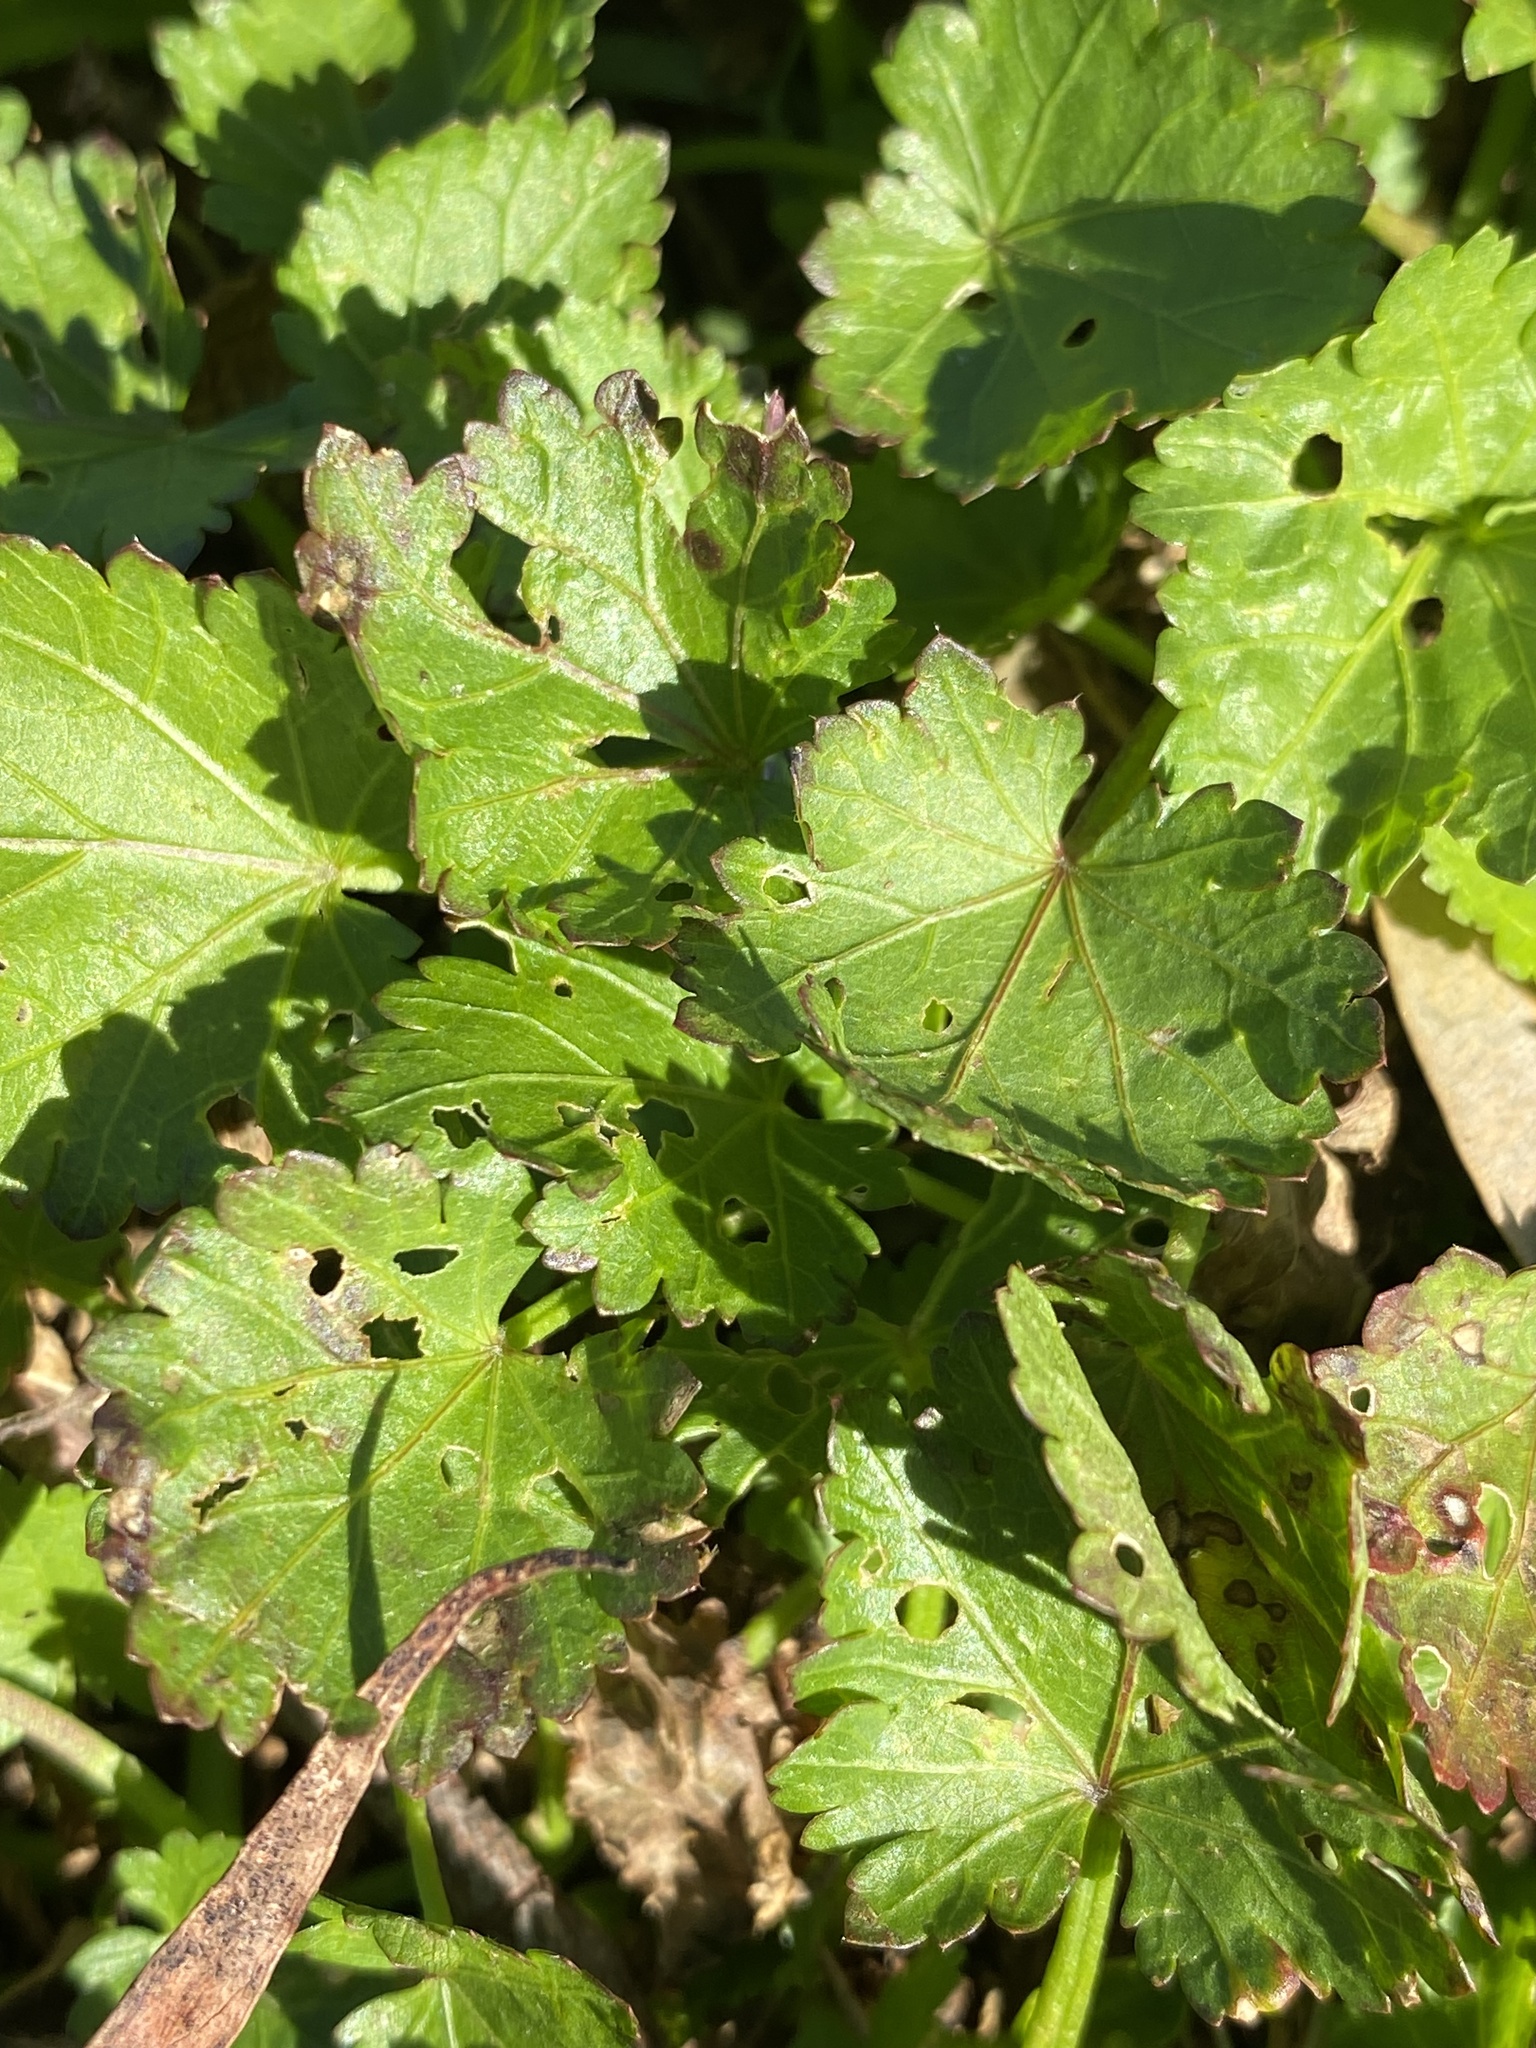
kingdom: Plantae
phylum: Tracheophyta
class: Magnoliopsida
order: Malvales
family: Malvaceae
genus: Modiola
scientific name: Modiola caroliniana
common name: Carolina bristlemallow
